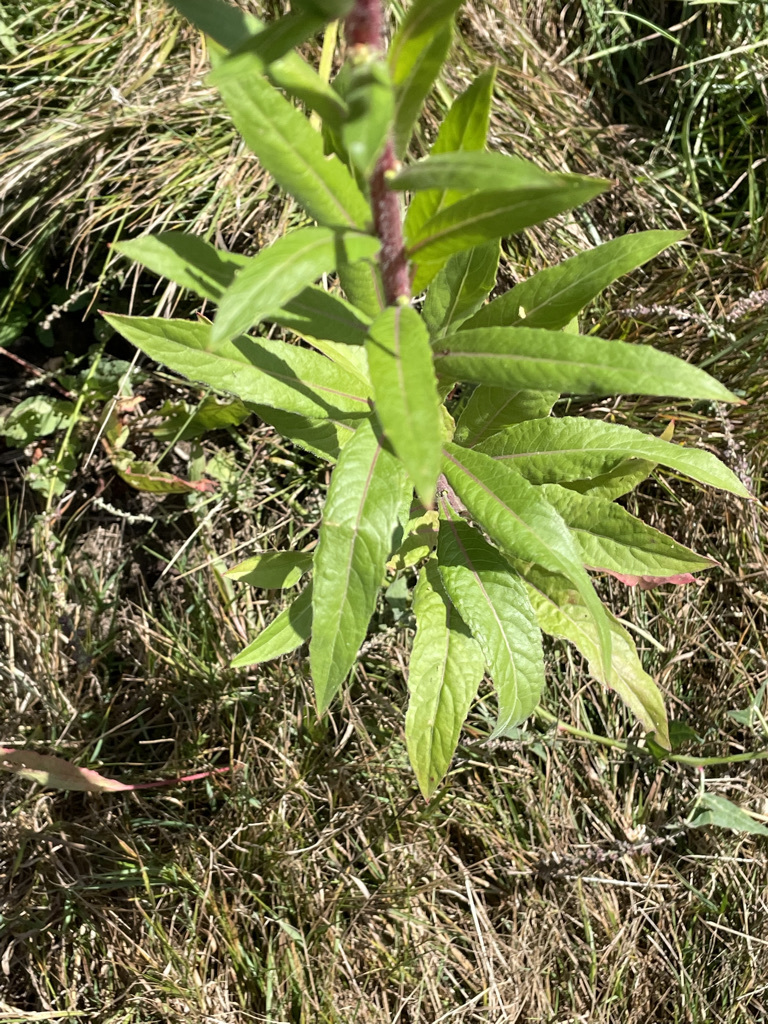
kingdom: Plantae
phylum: Tracheophyta
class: Magnoliopsida
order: Myrtales
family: Onagraceae
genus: Oenothera
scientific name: Oenothera biennis
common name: Common evening-primrose
